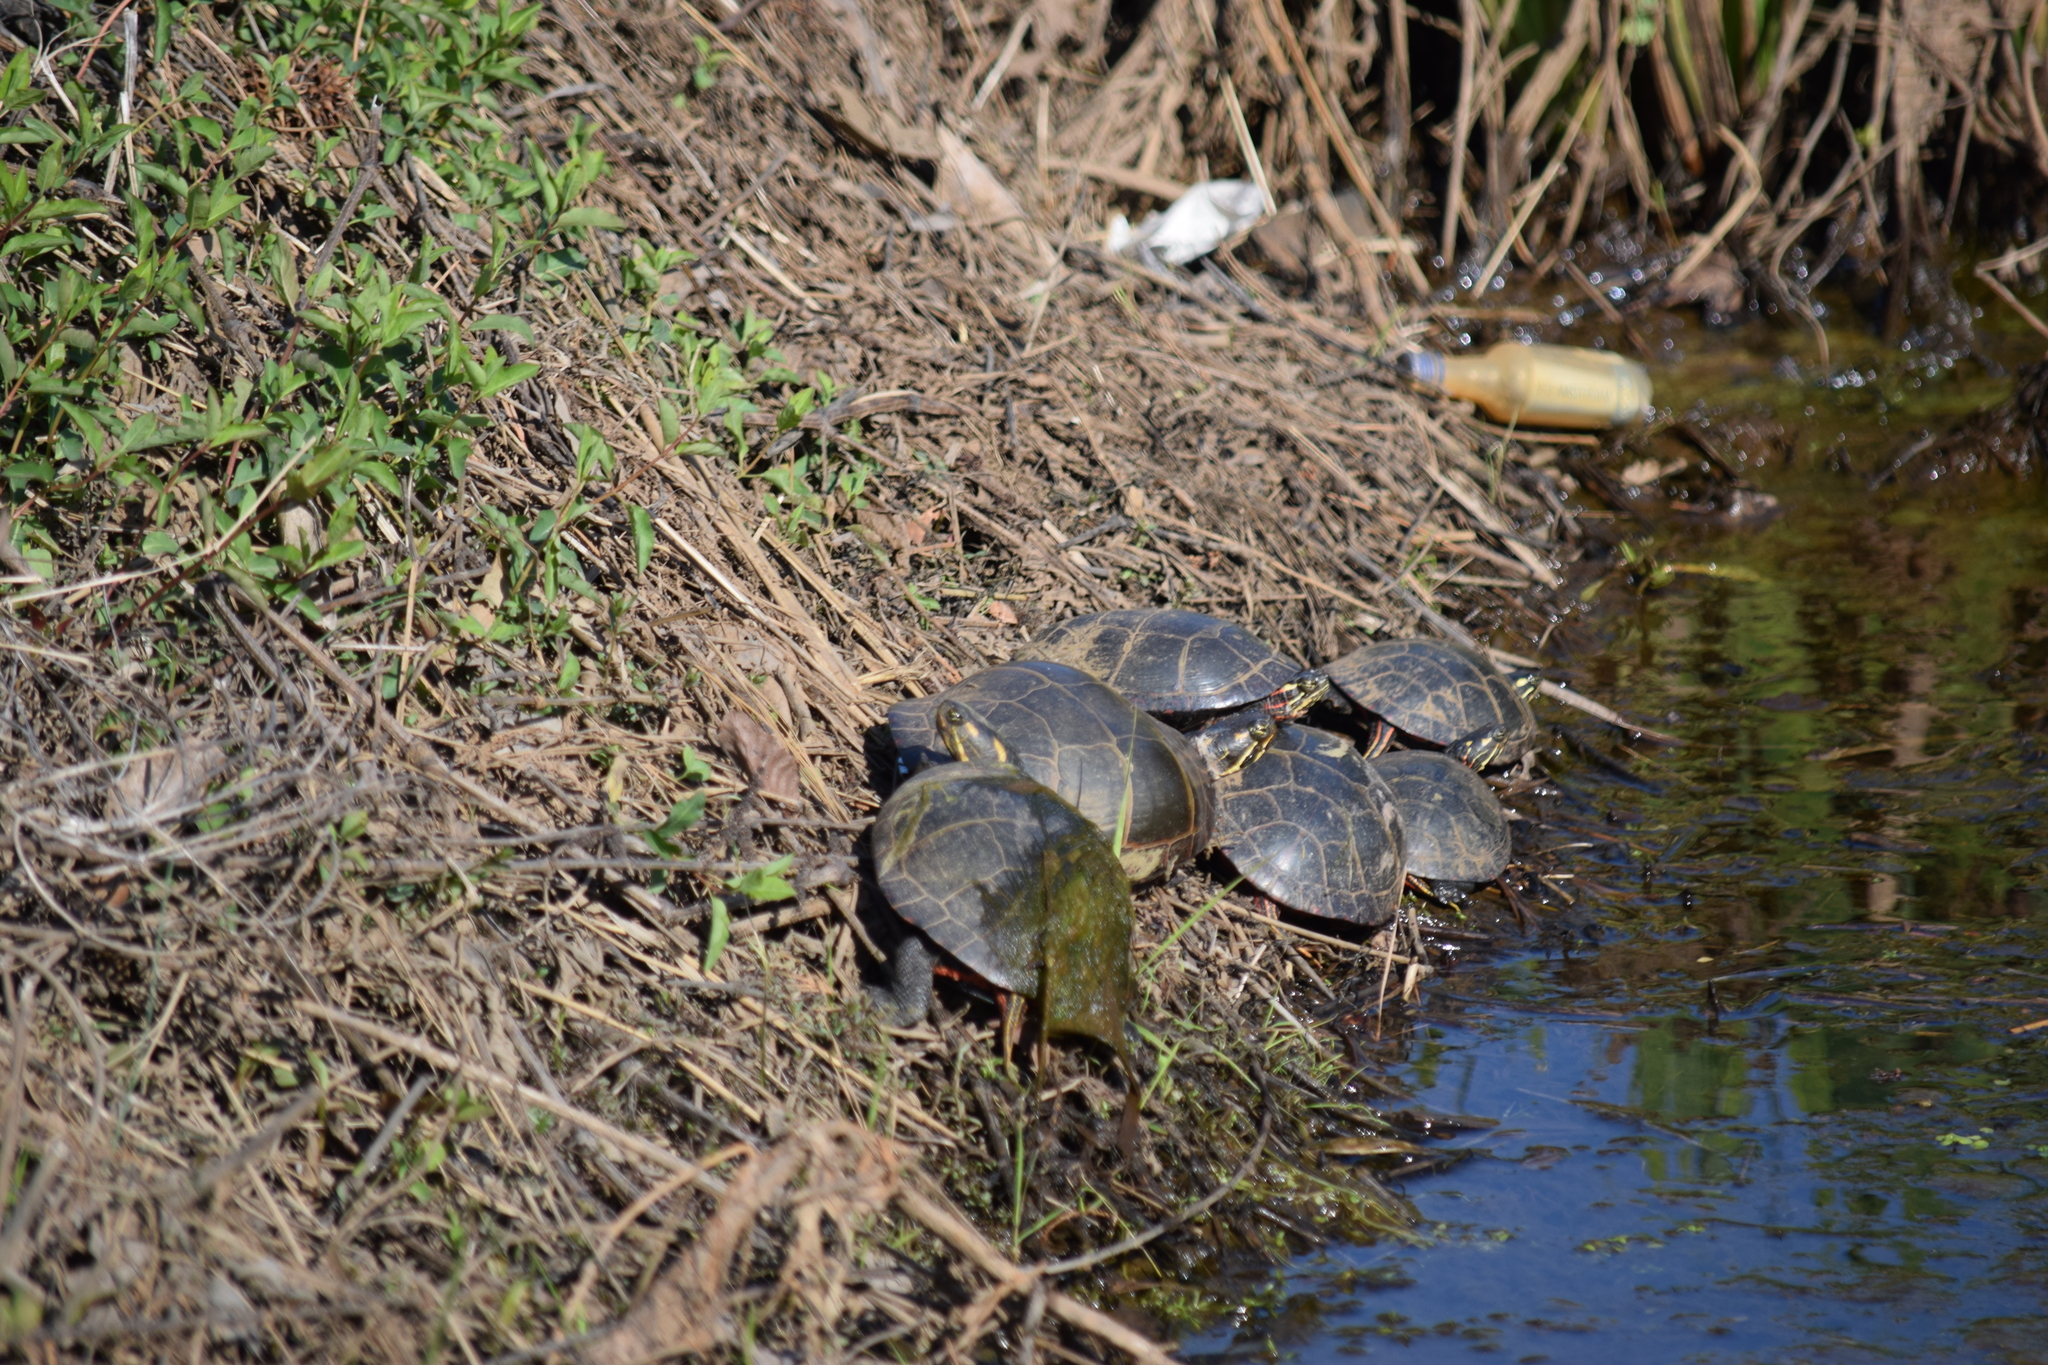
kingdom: Animalia
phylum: Chordata
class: Testudines
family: Emydidae
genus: Chrysemys
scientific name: Chrysemys picta
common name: Painted turtle
